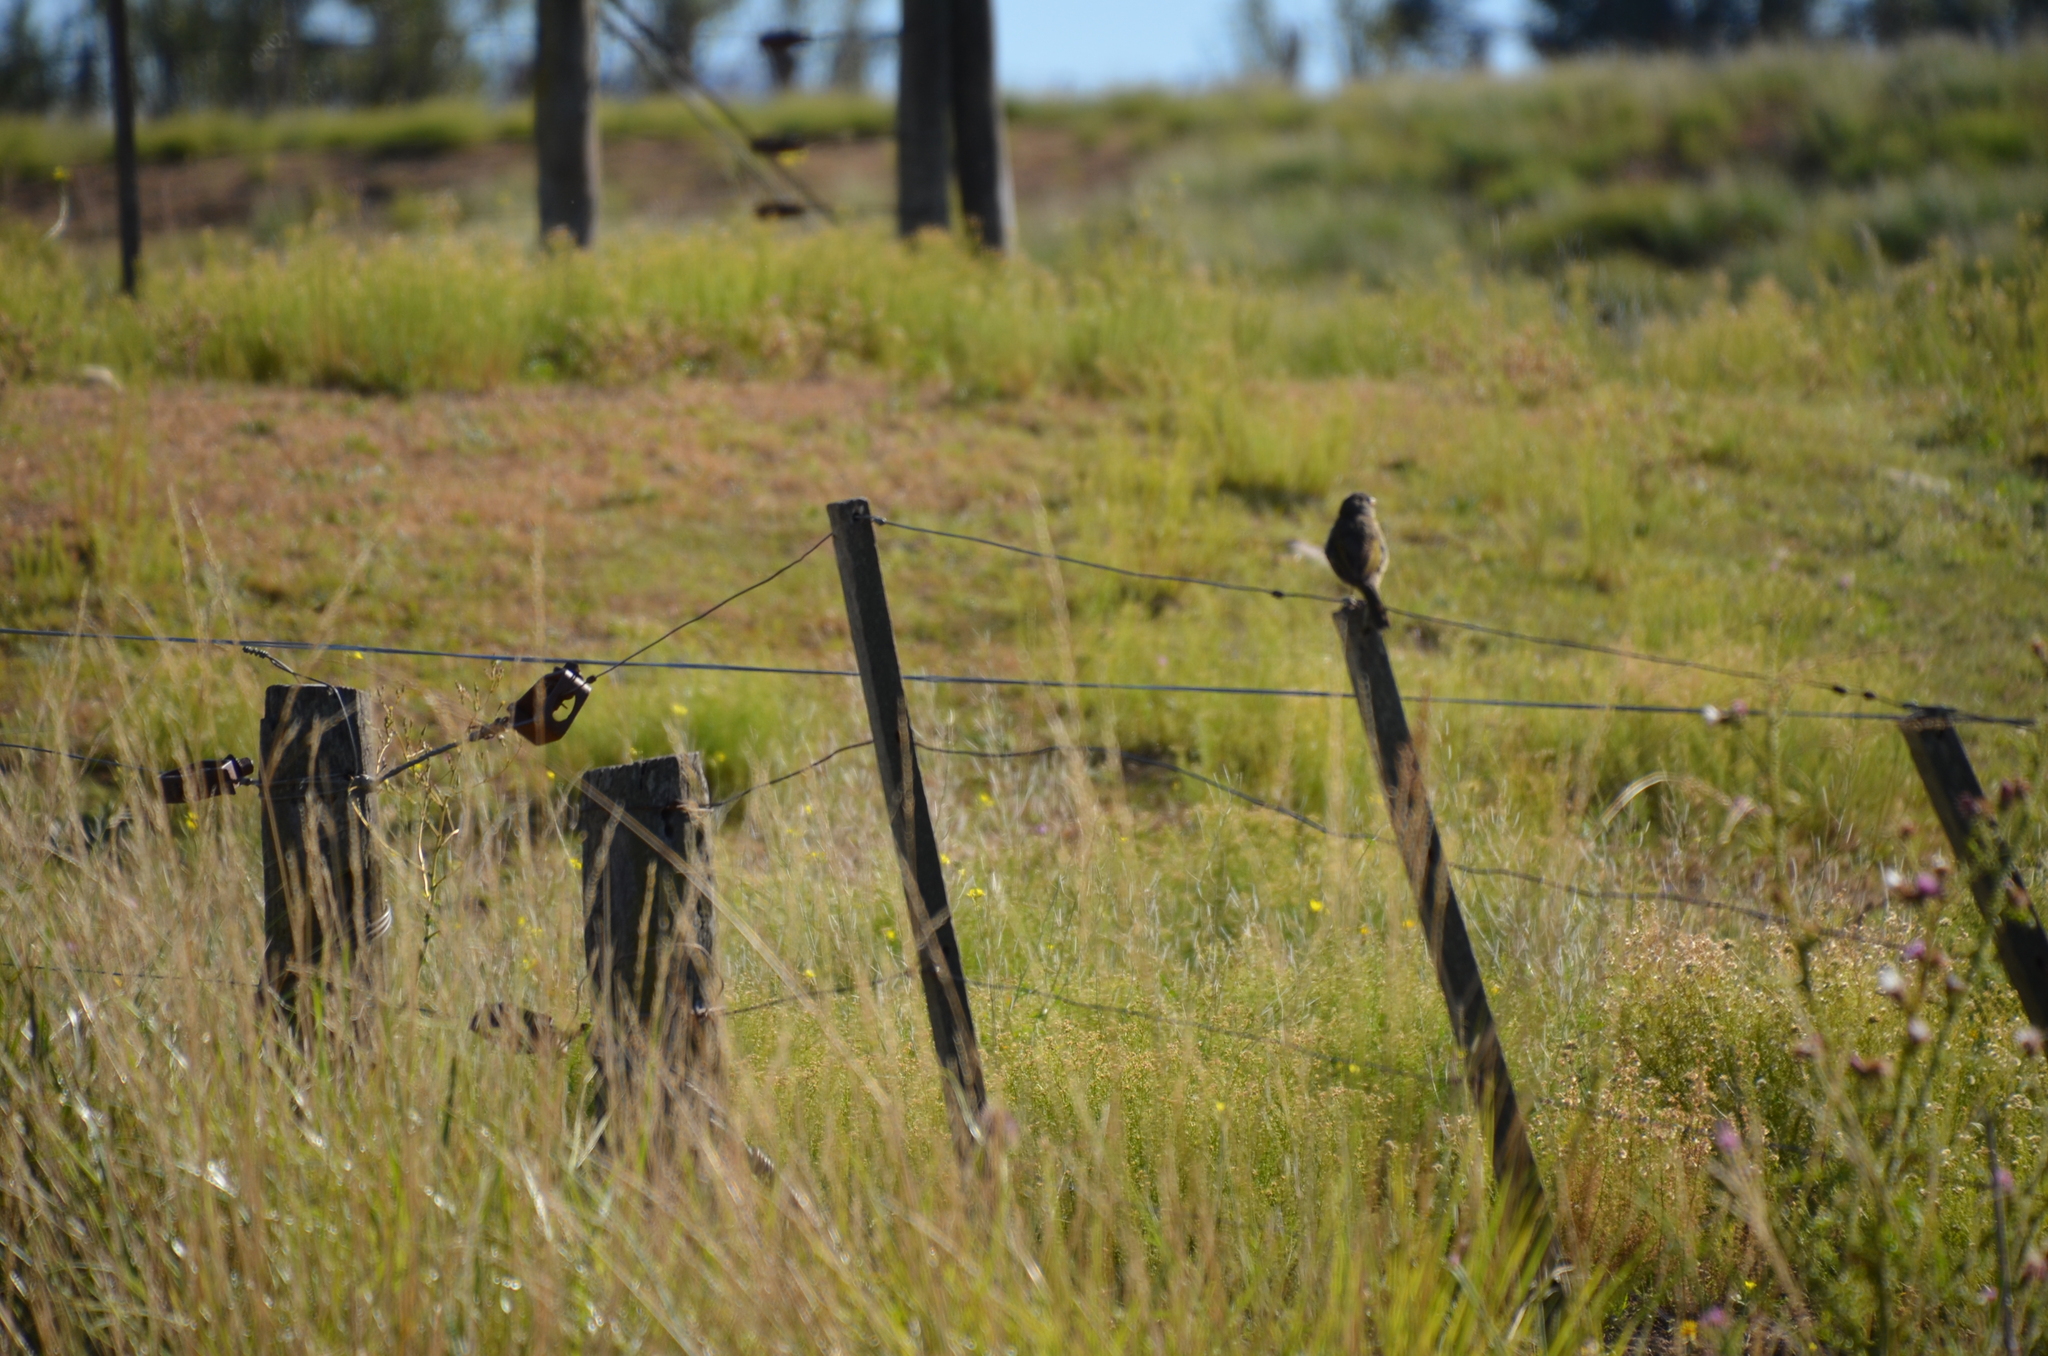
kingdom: Animalia
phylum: Chordata
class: Aves
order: Passeriformes
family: Tyrannidae
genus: Hymenops
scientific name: Hymenops perspicillatus
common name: Spectacled tyrant
